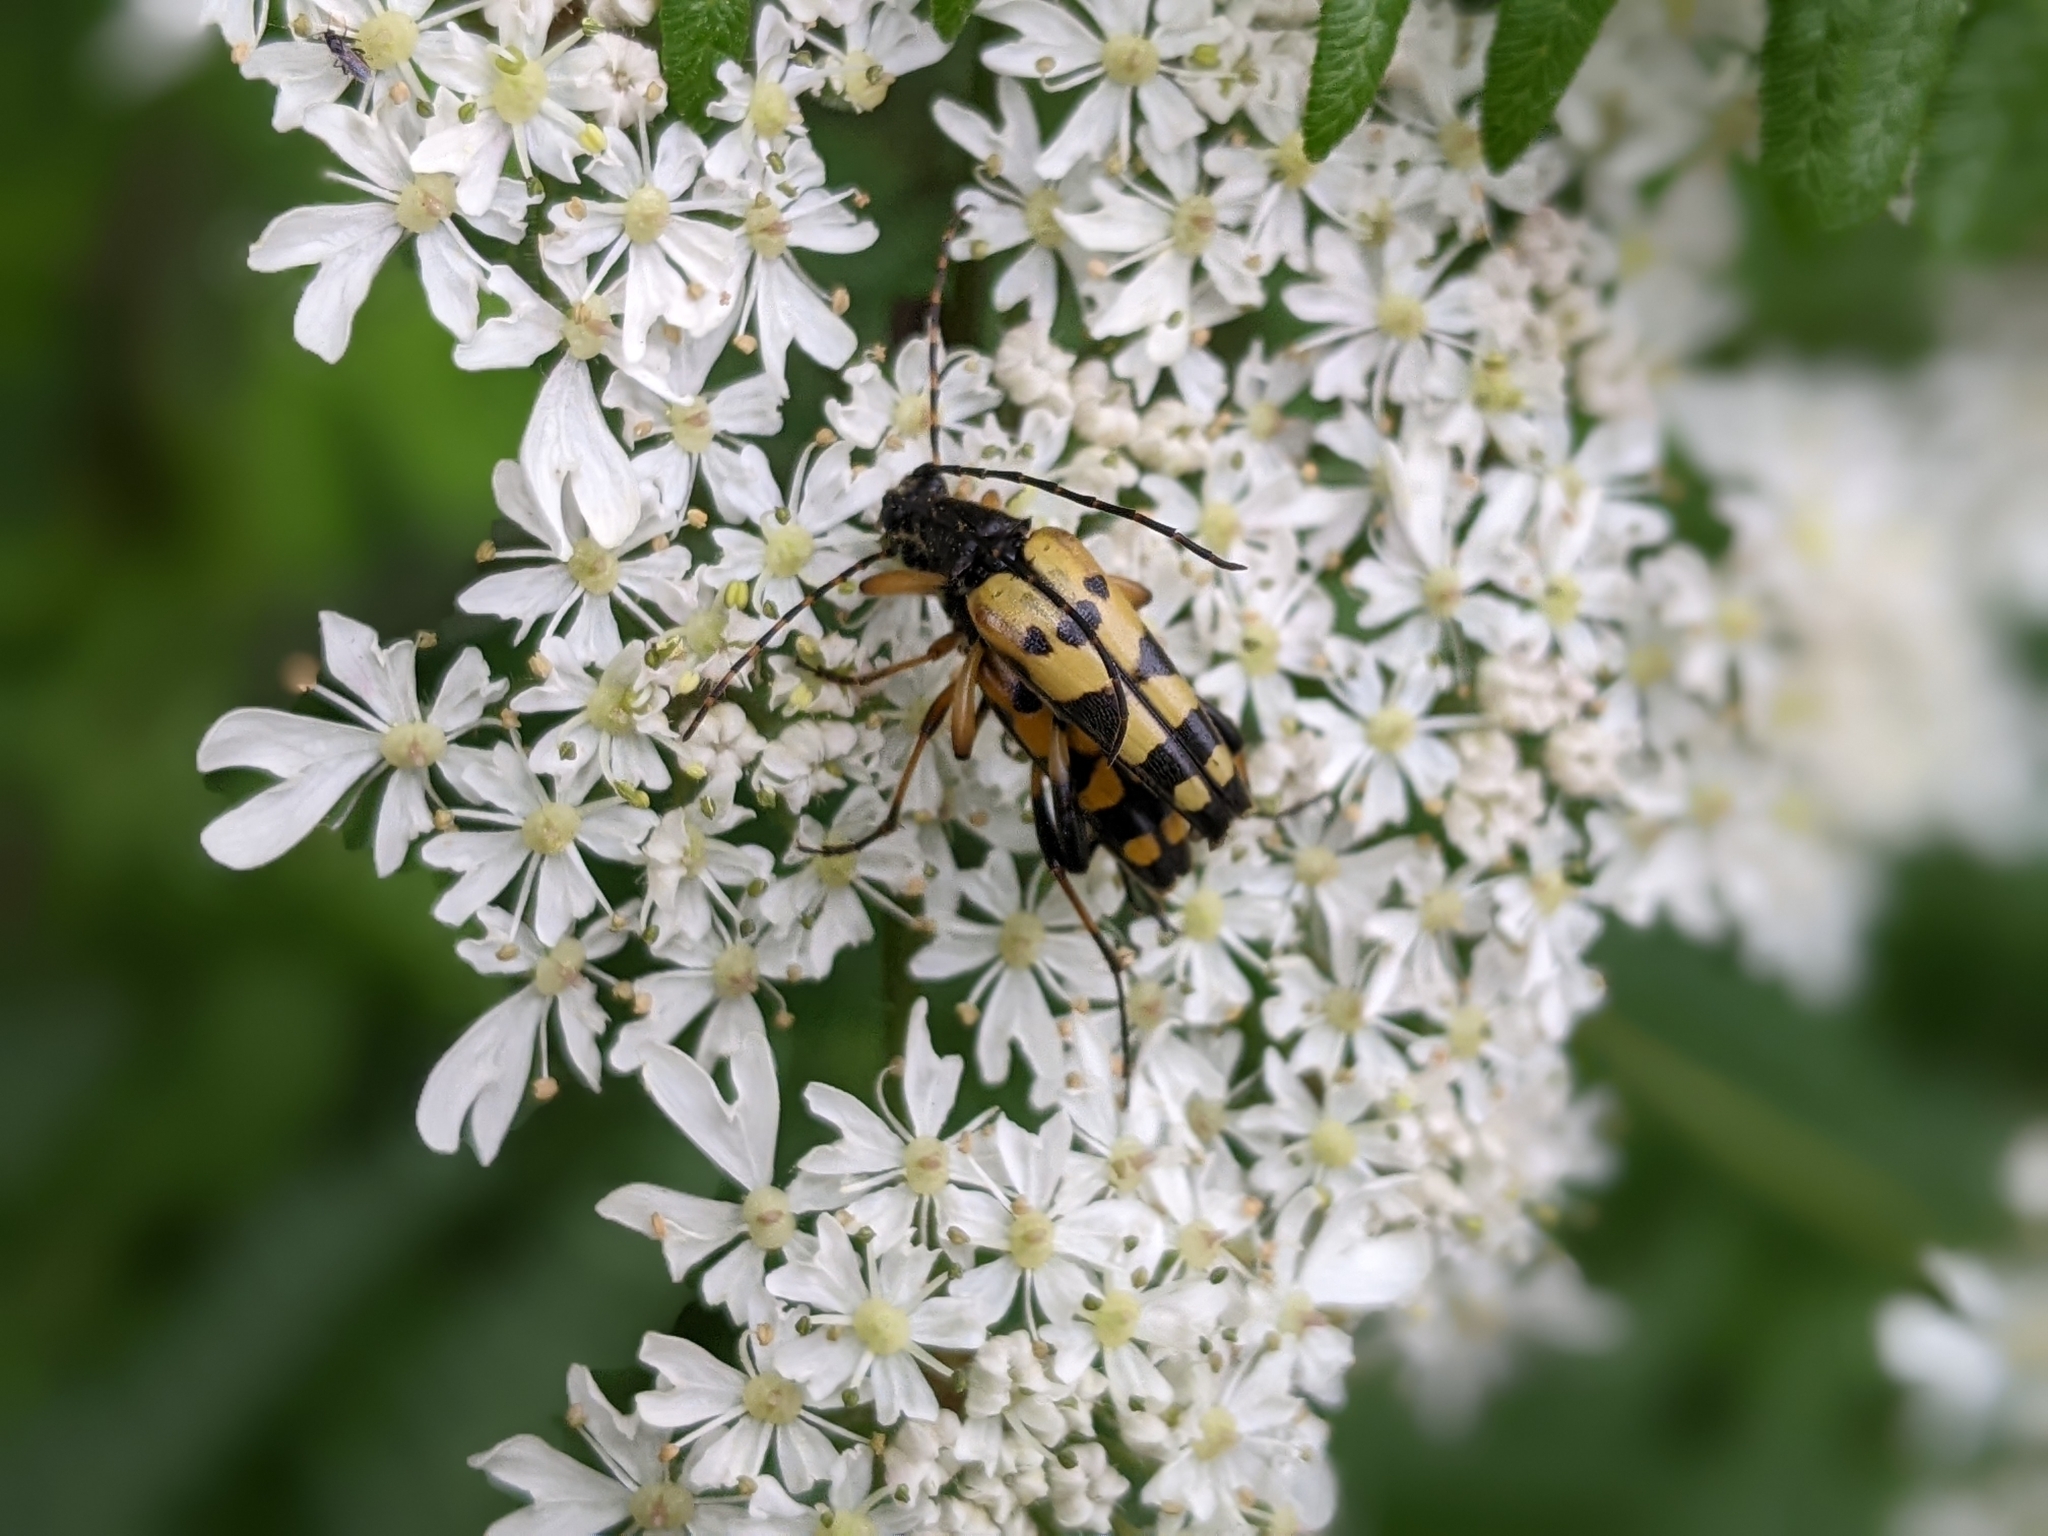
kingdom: Animalia
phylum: Arthropoda
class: Insecta
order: Coleoptera
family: Cerambycidae
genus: Rutpela
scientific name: Rutpela maculata
